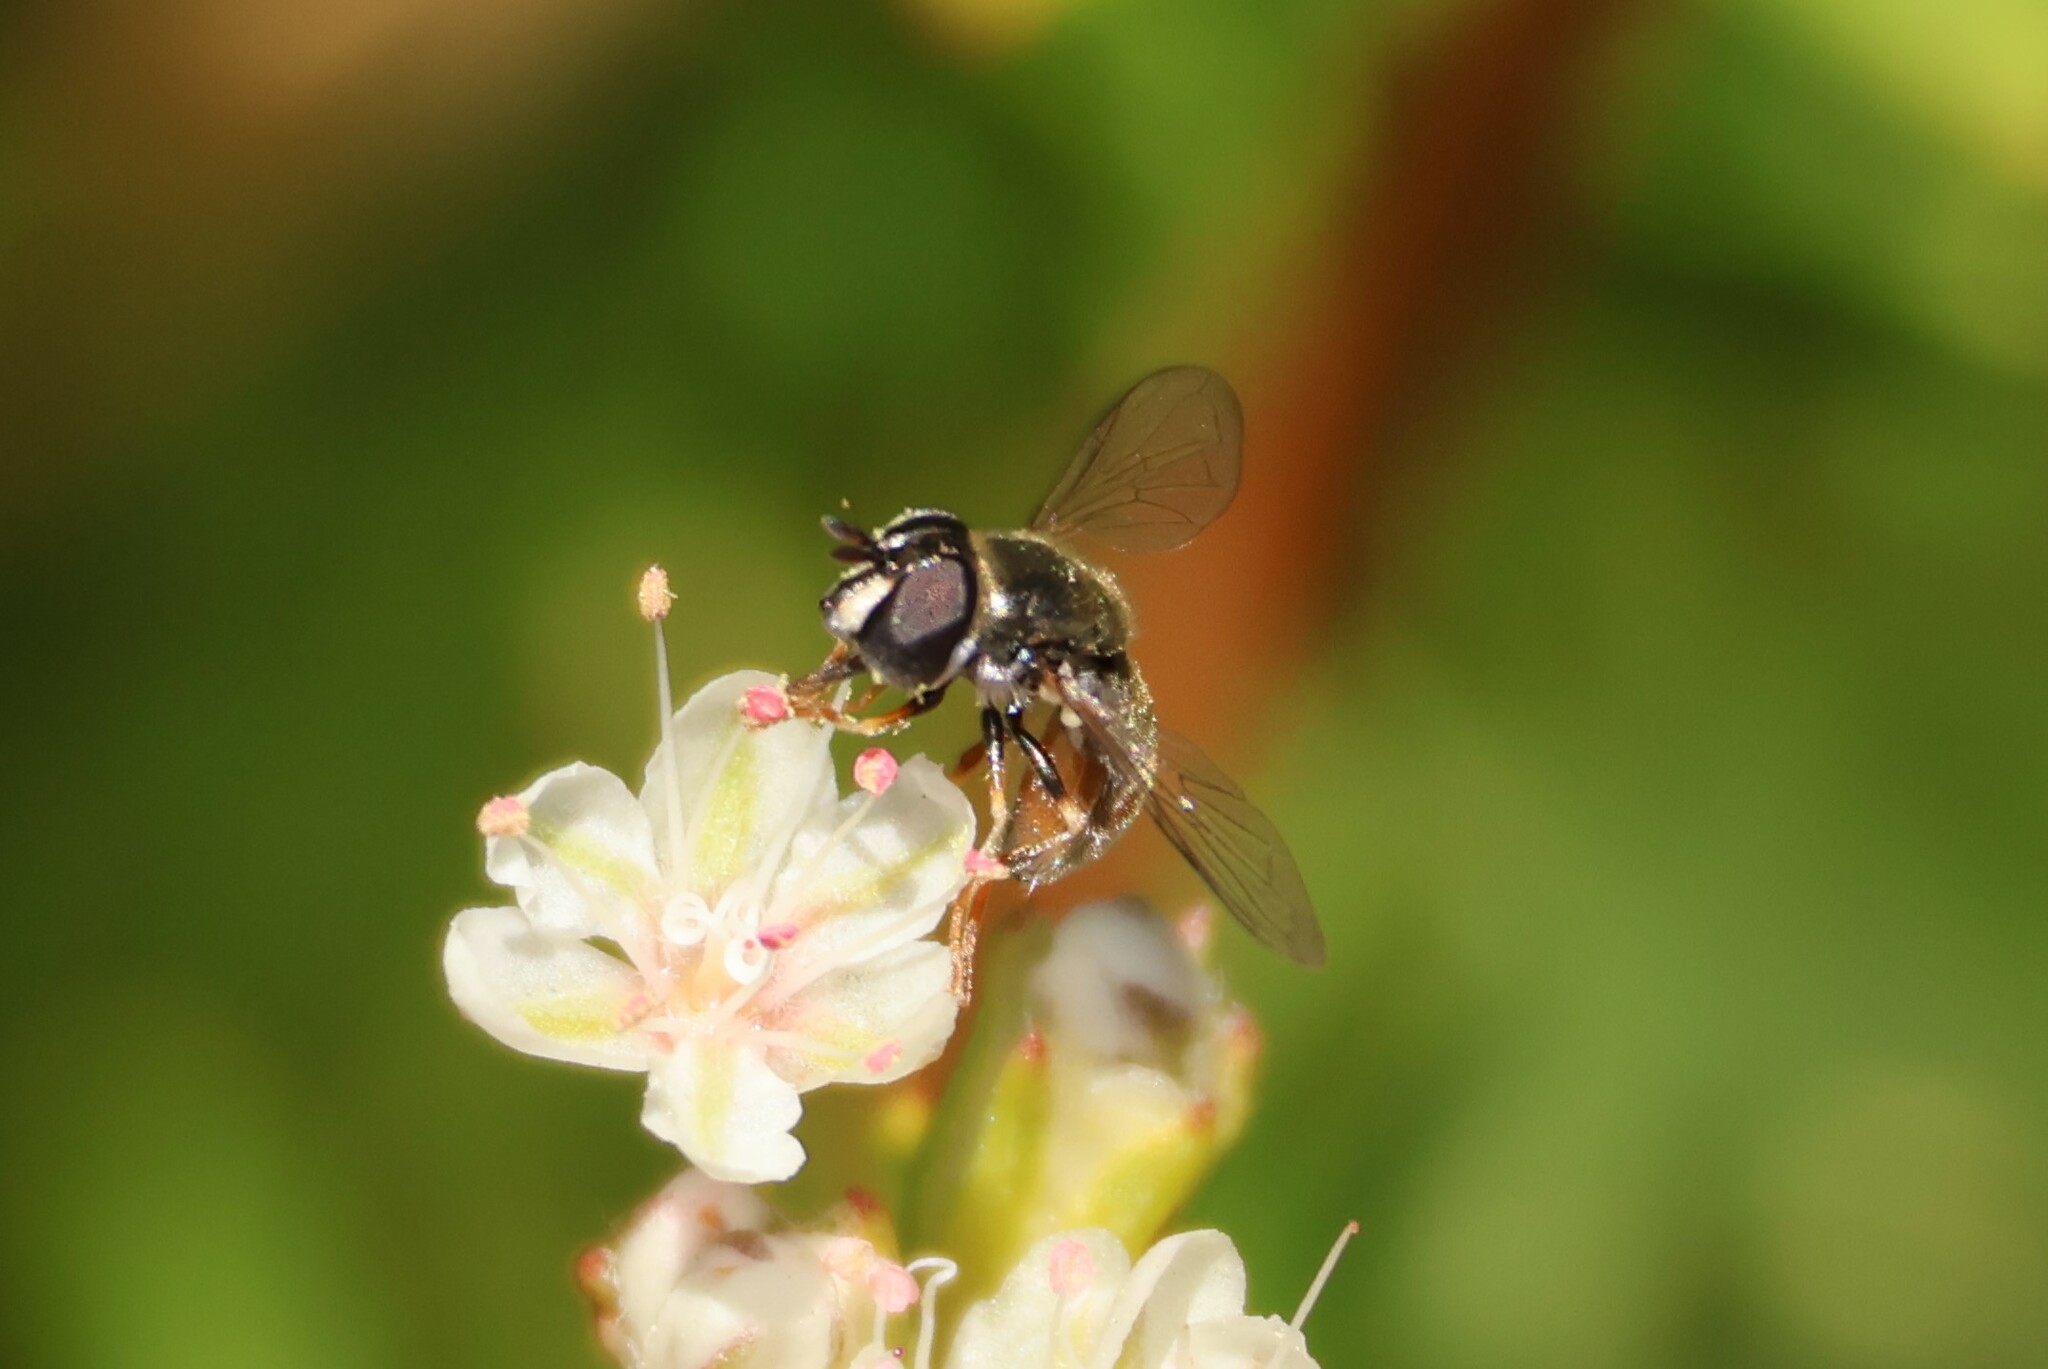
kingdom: Animalia
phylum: Arthropoda
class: Insecta
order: Diptera
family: Syrphidae
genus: Paragus
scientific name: Paragus haemorrhous
